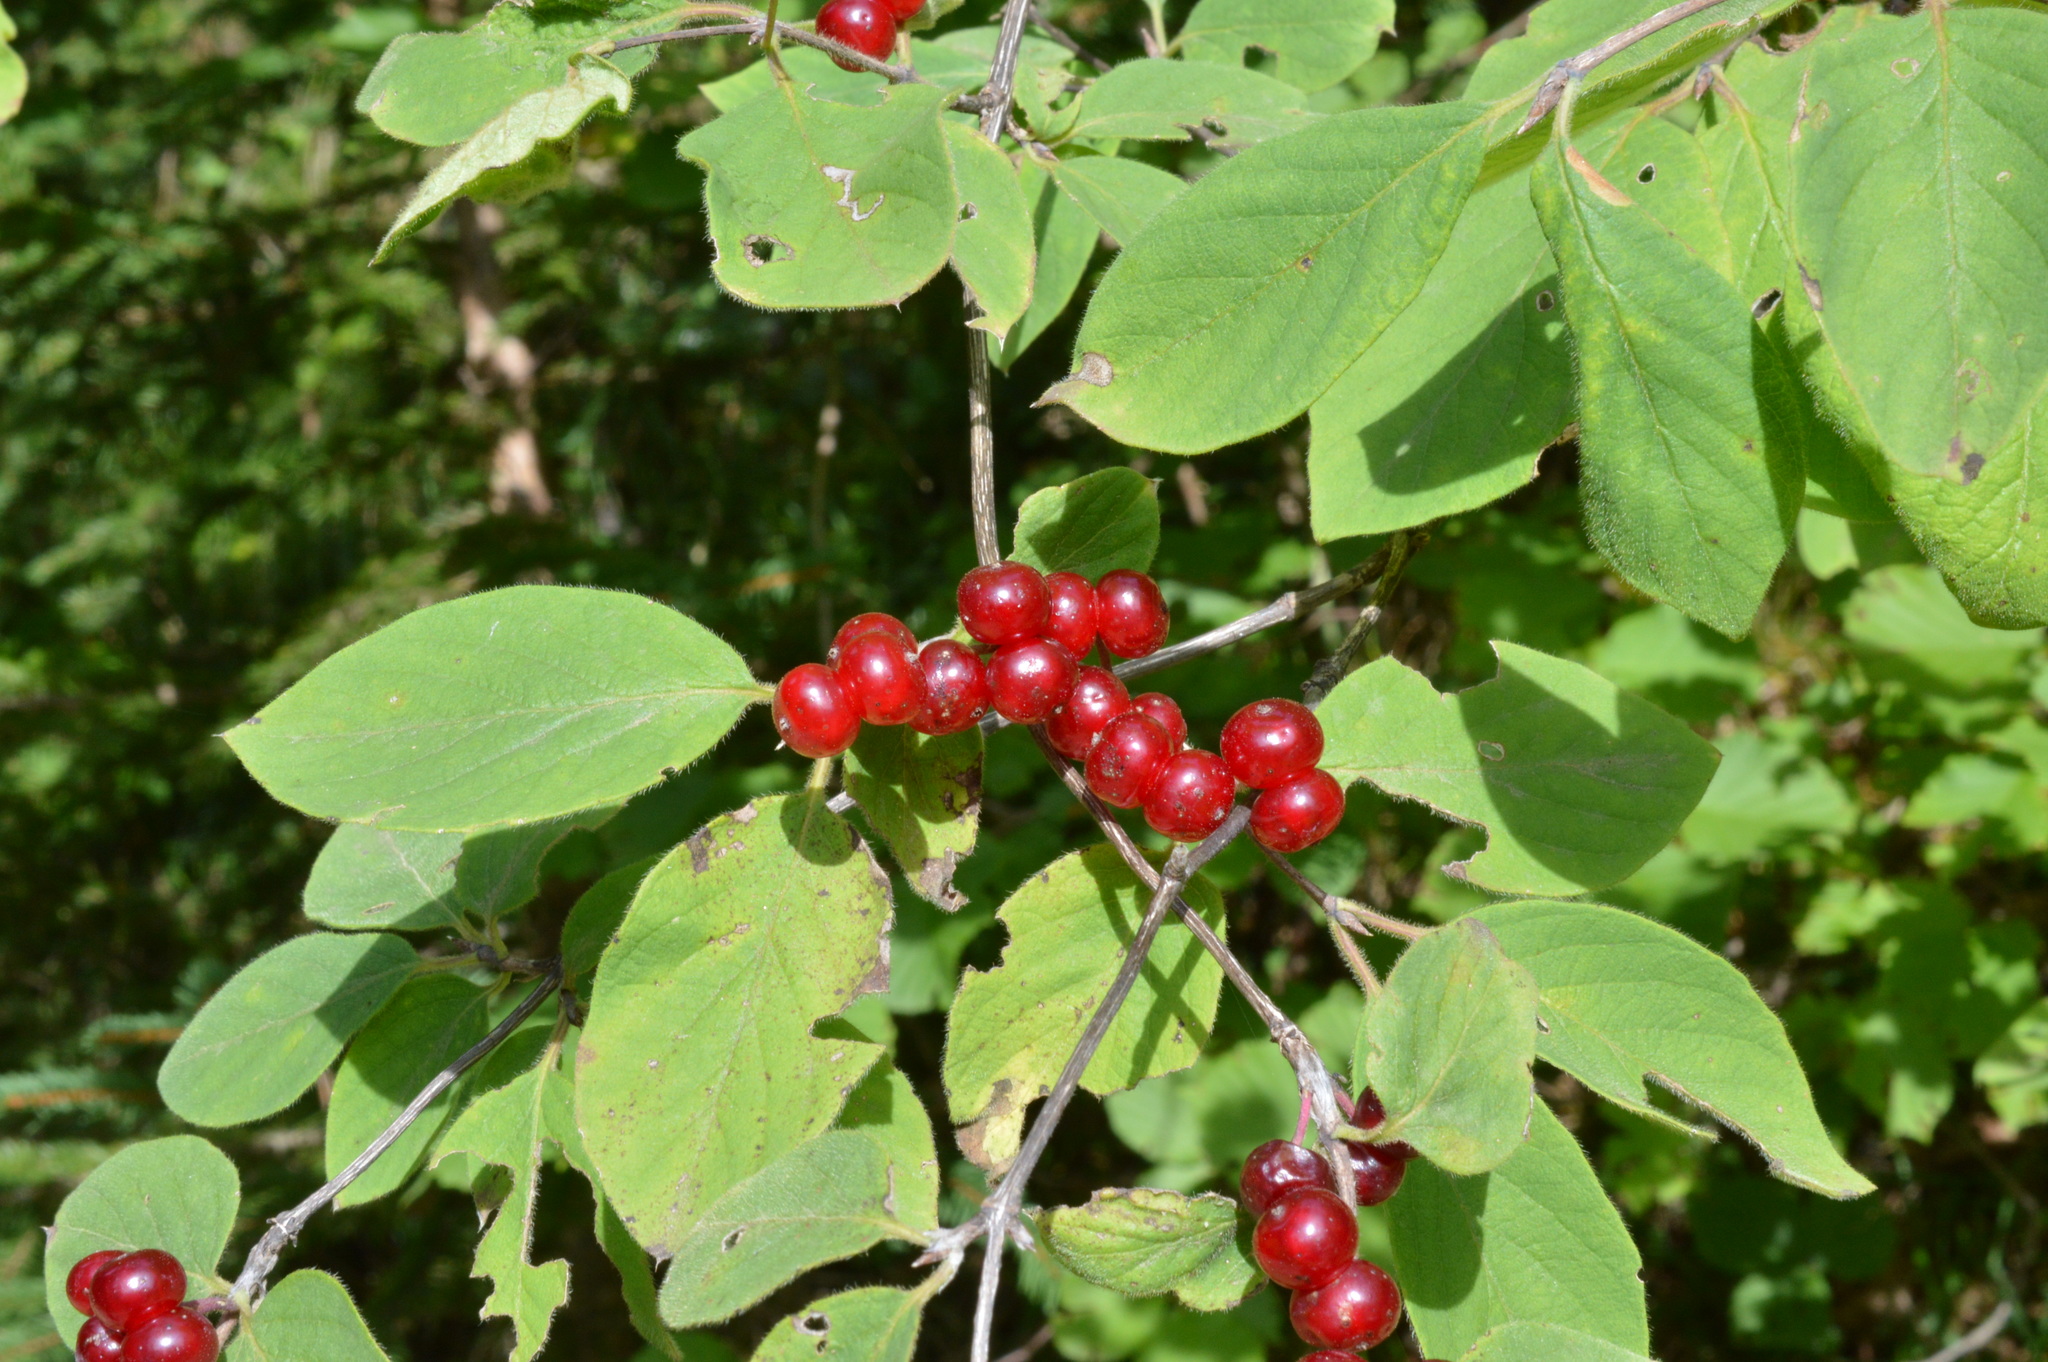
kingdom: Plantae
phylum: Tracheophyta
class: Magnoliopsida
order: Dipsacales
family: Caprifoliaceae
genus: Lonicera
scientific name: Lonicera xylosteum
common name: Fly honeysuckle
